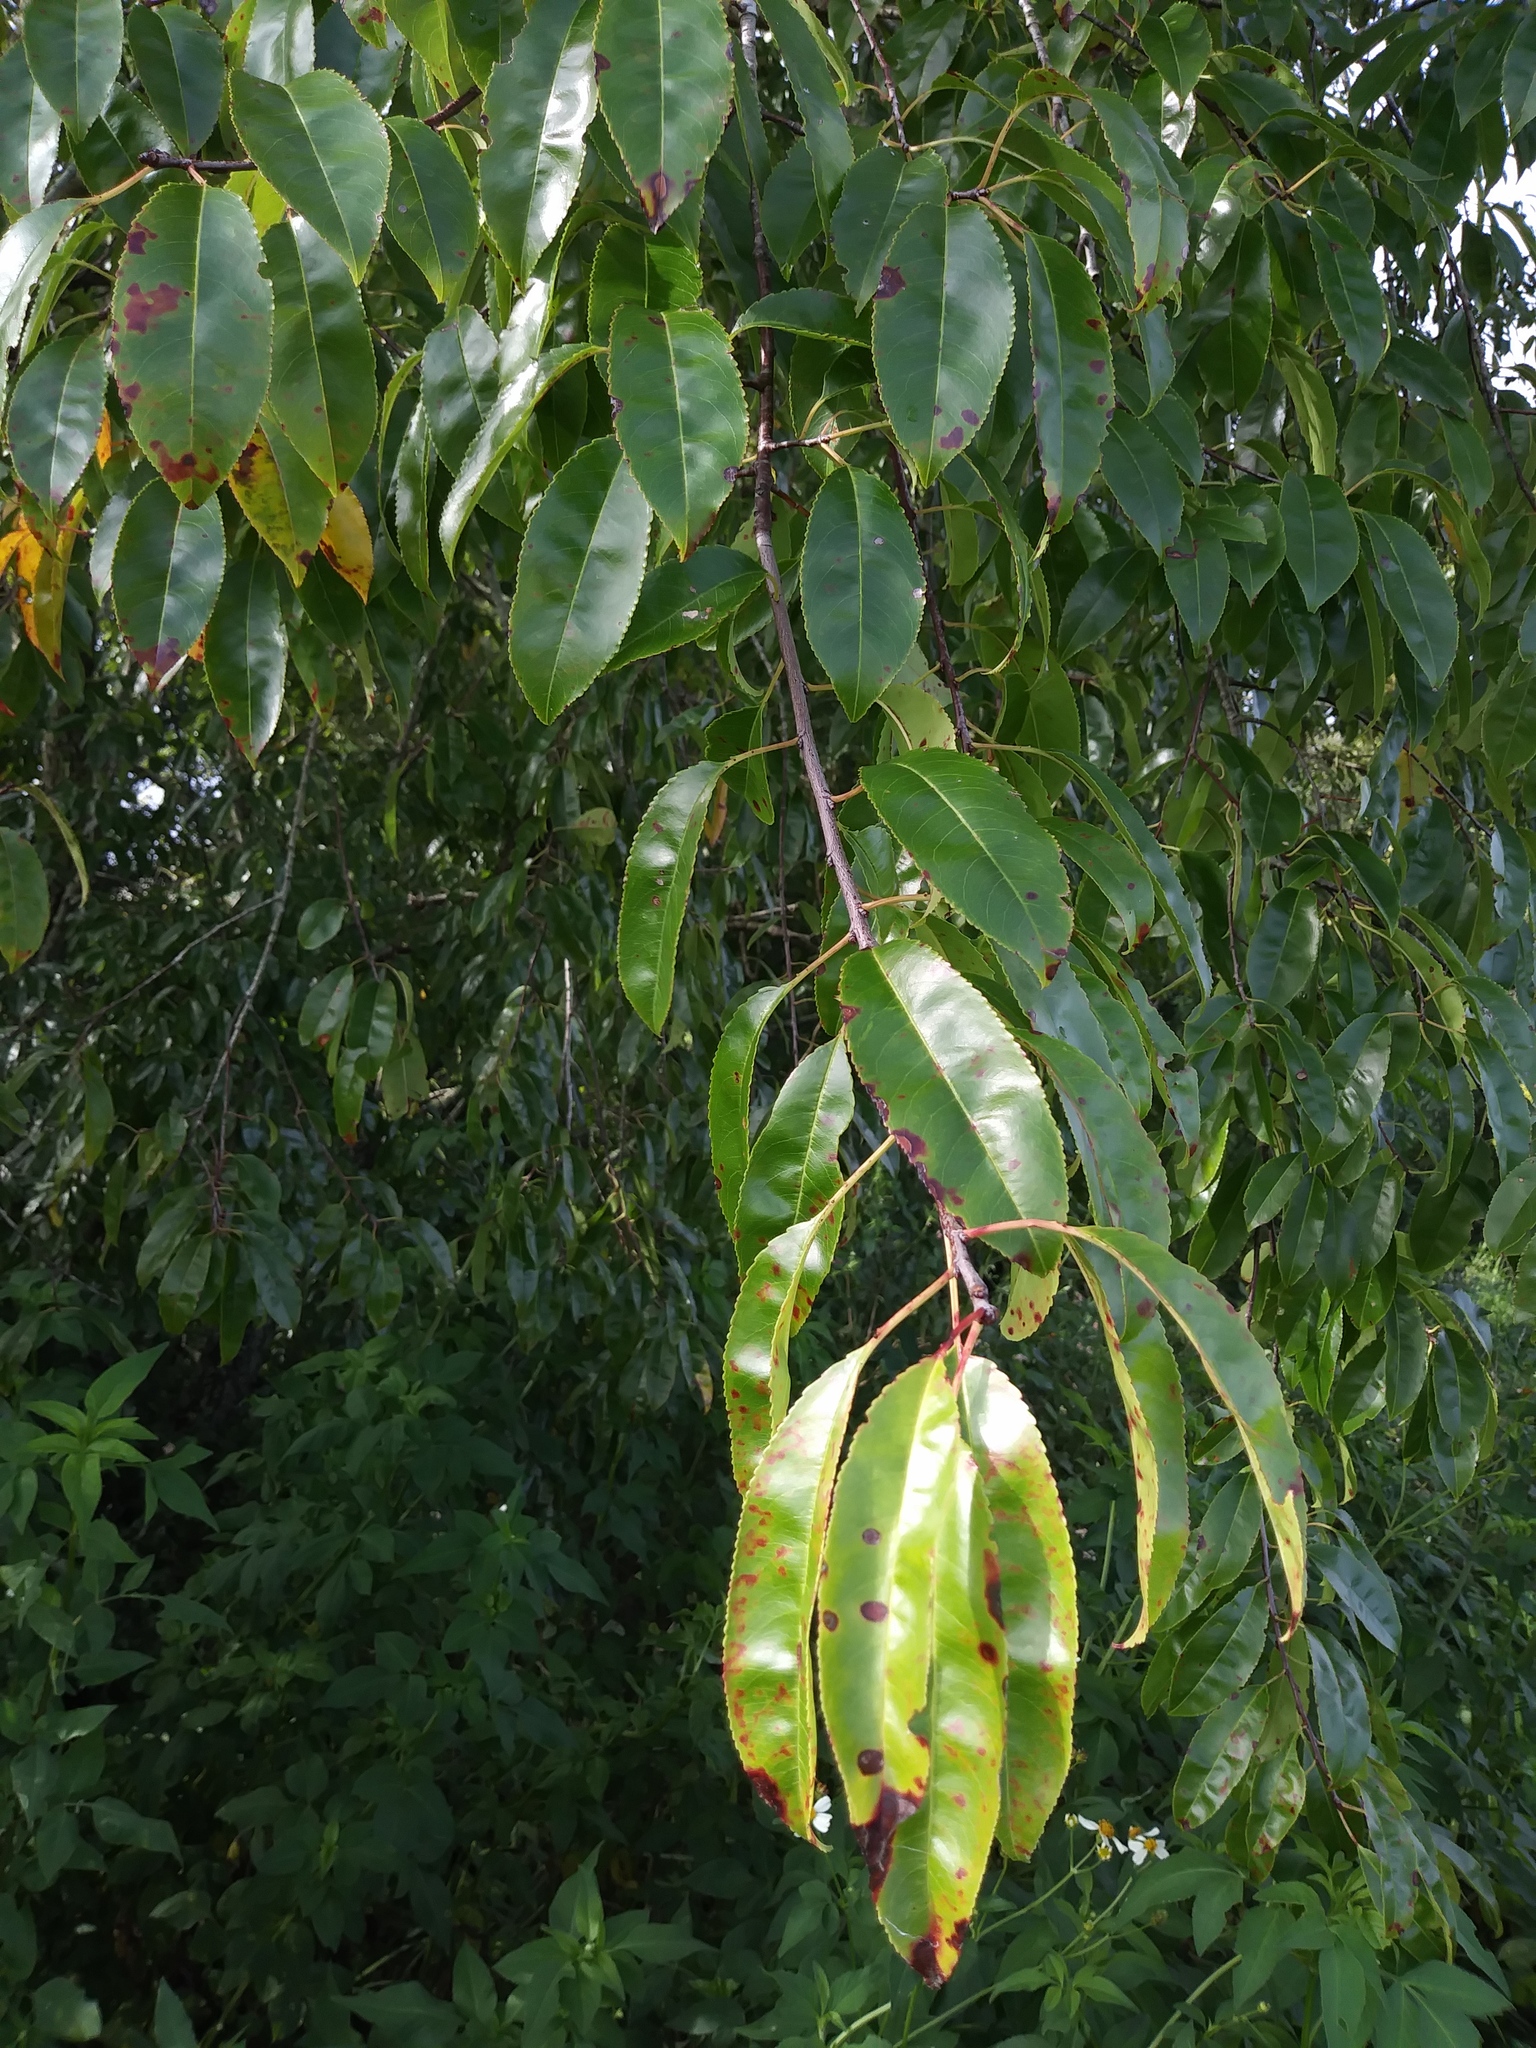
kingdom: Plantae
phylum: Tracheophyta
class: Magnoliopsida
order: Rosales
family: Rosaceae
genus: Prunus
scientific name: Prunus serotina
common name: Black cherry
